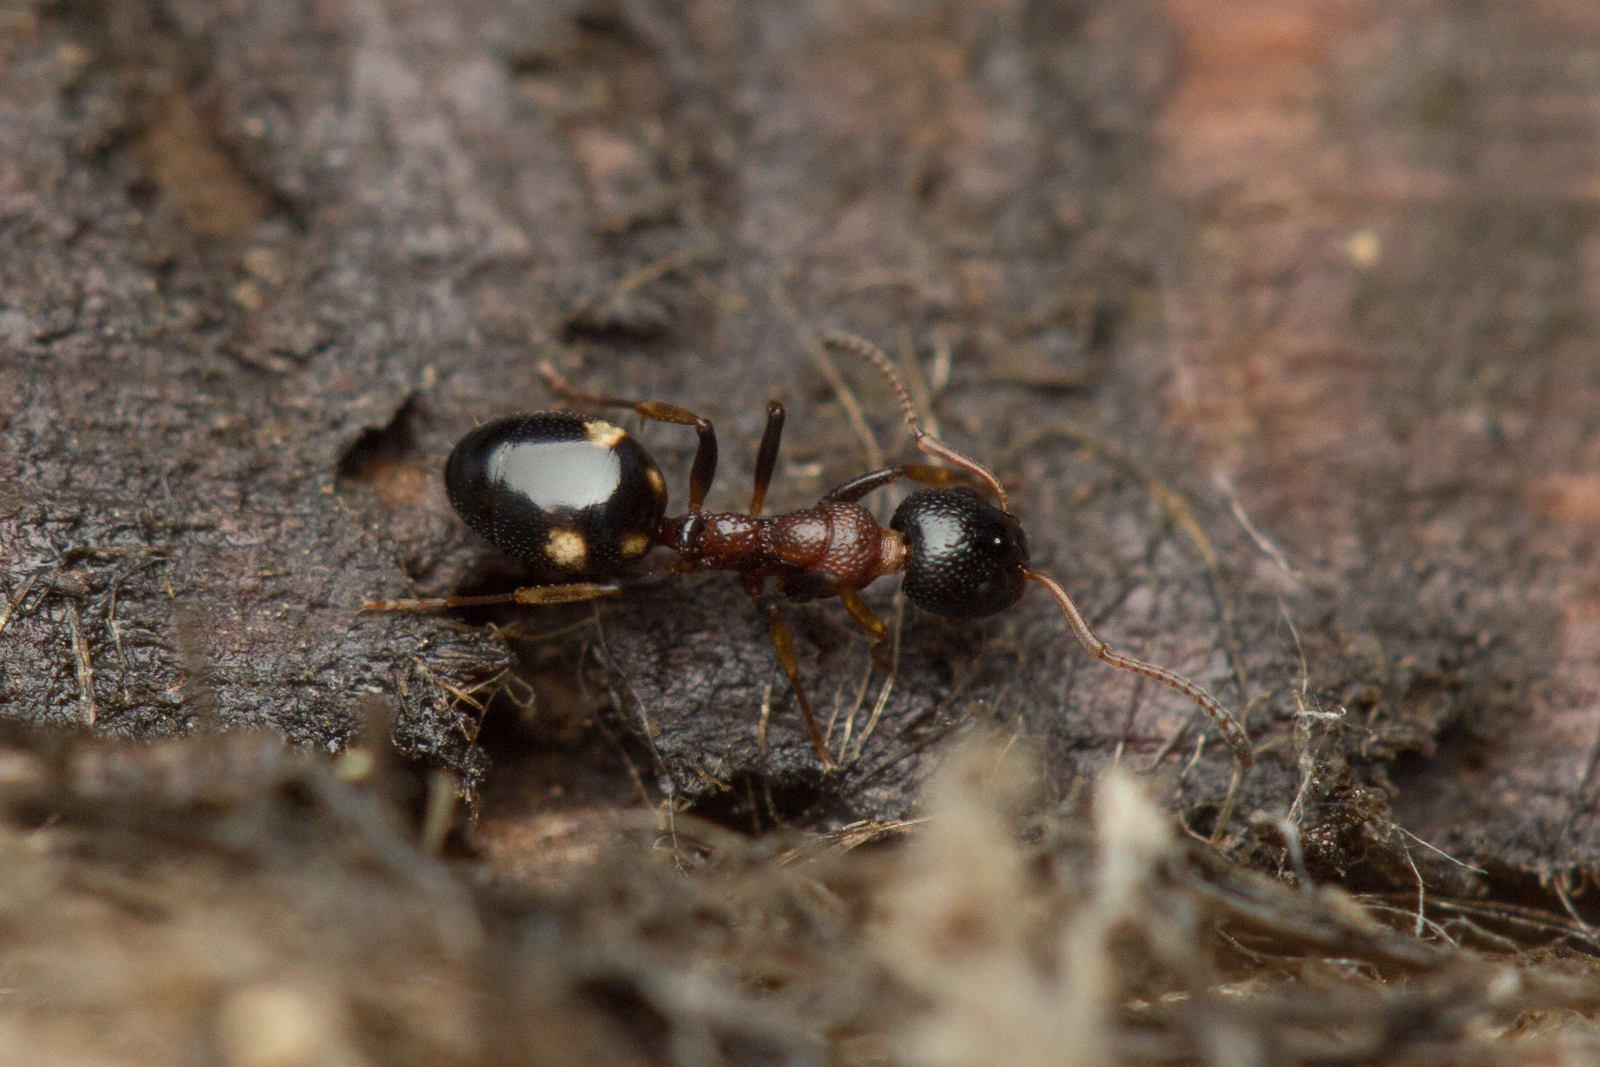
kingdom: Animalia
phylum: Arthropoda
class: Insecta
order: Hymenoptera
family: Formicidae
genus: Dolichoderus
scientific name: Dolichoderus quadripunctatus
